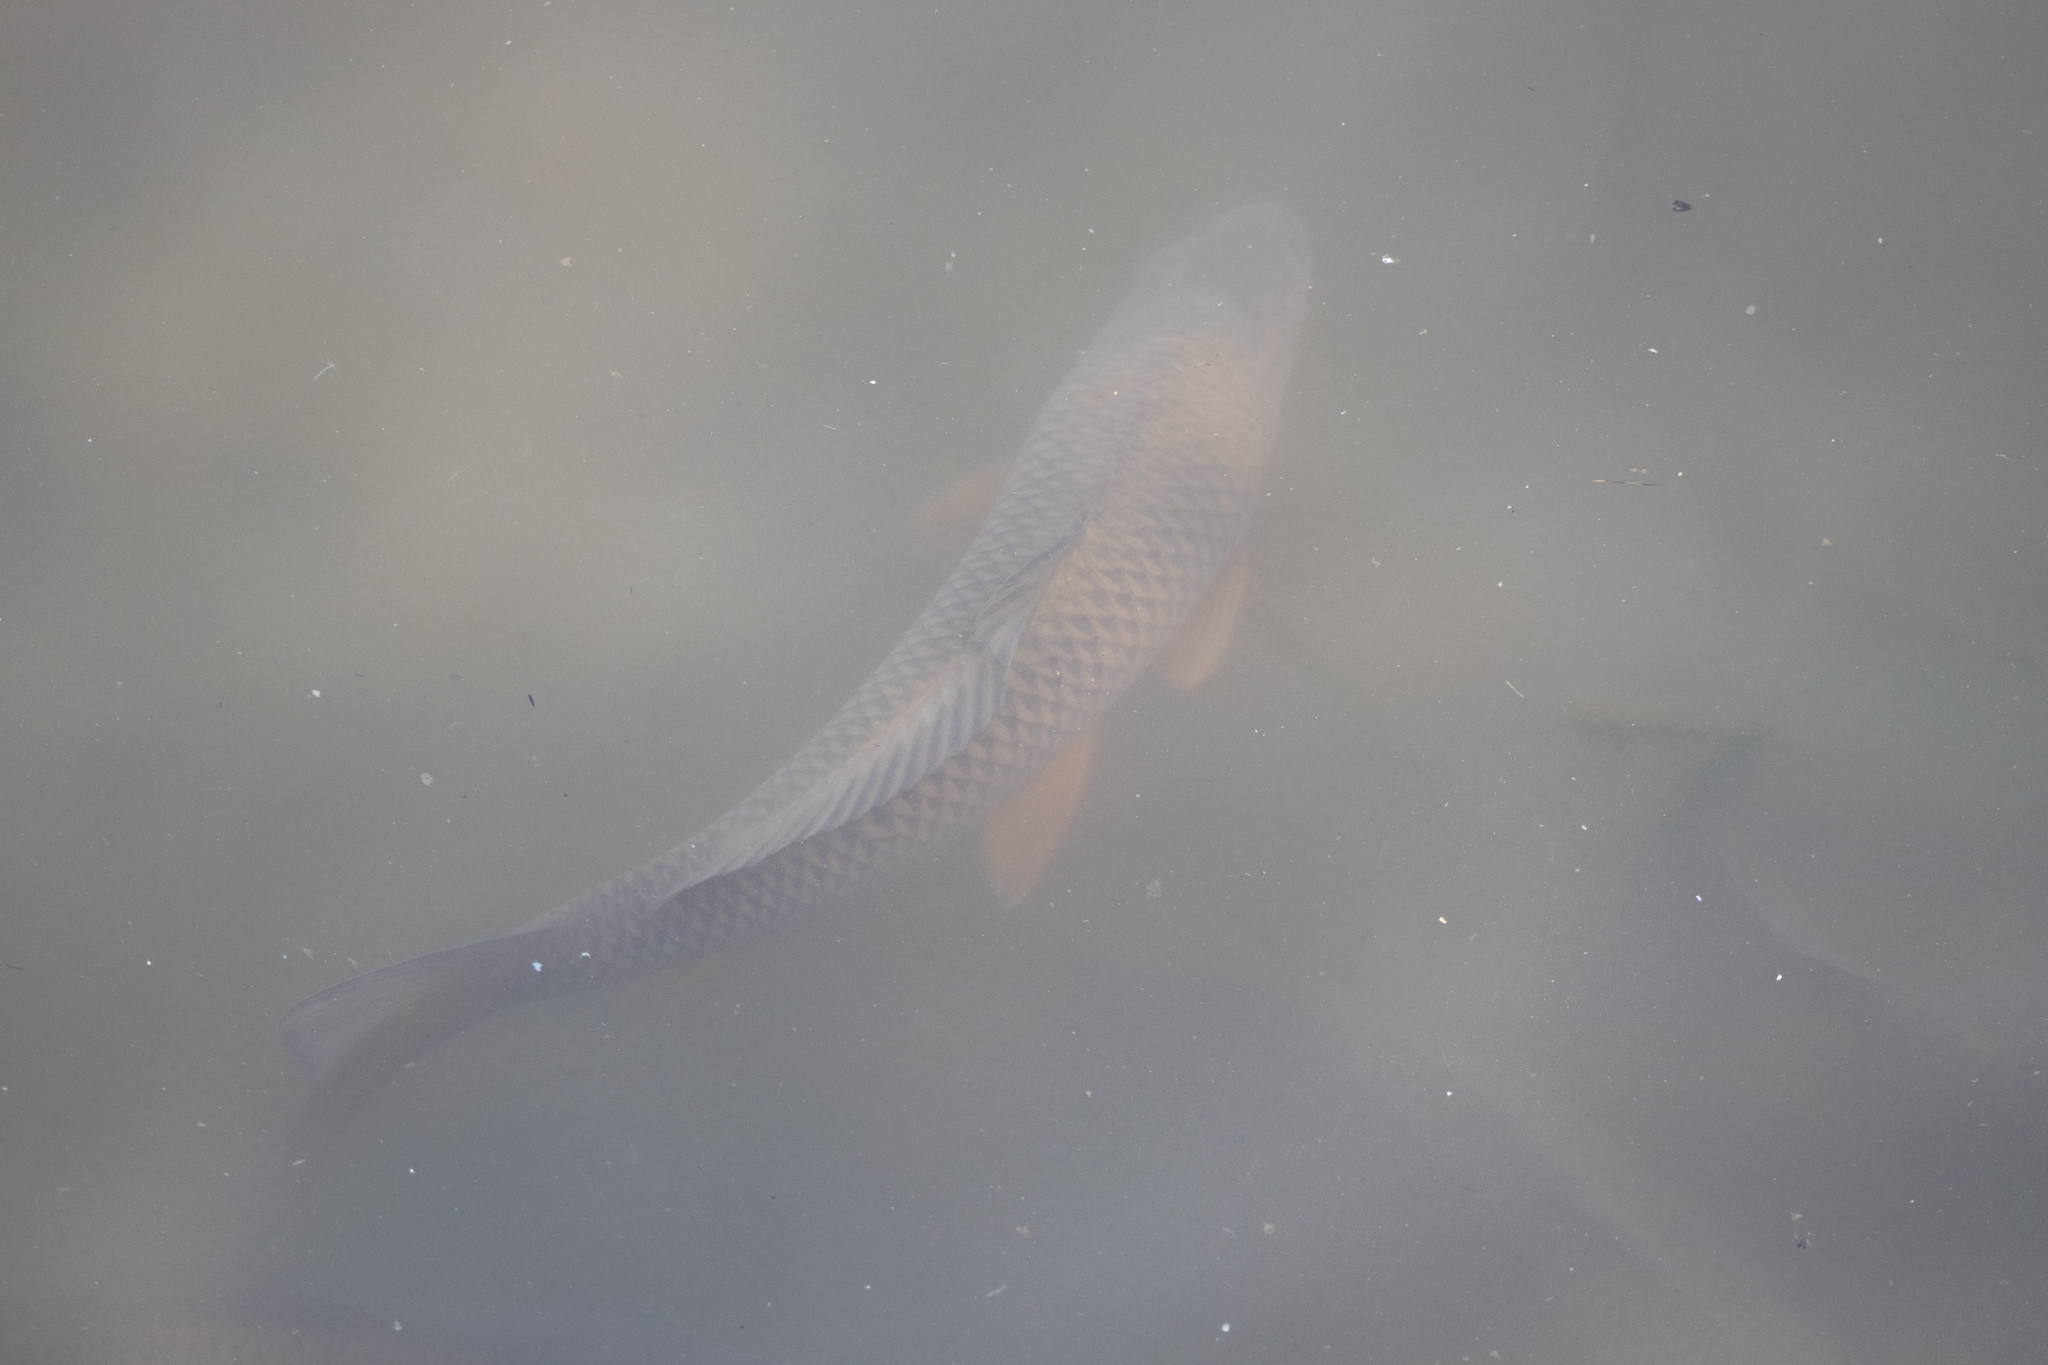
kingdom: Animalia
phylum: Chordata
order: Cypriniformes
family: Cyprinidae
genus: Cyprinus
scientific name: Cyprinus carpio
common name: Common carp
